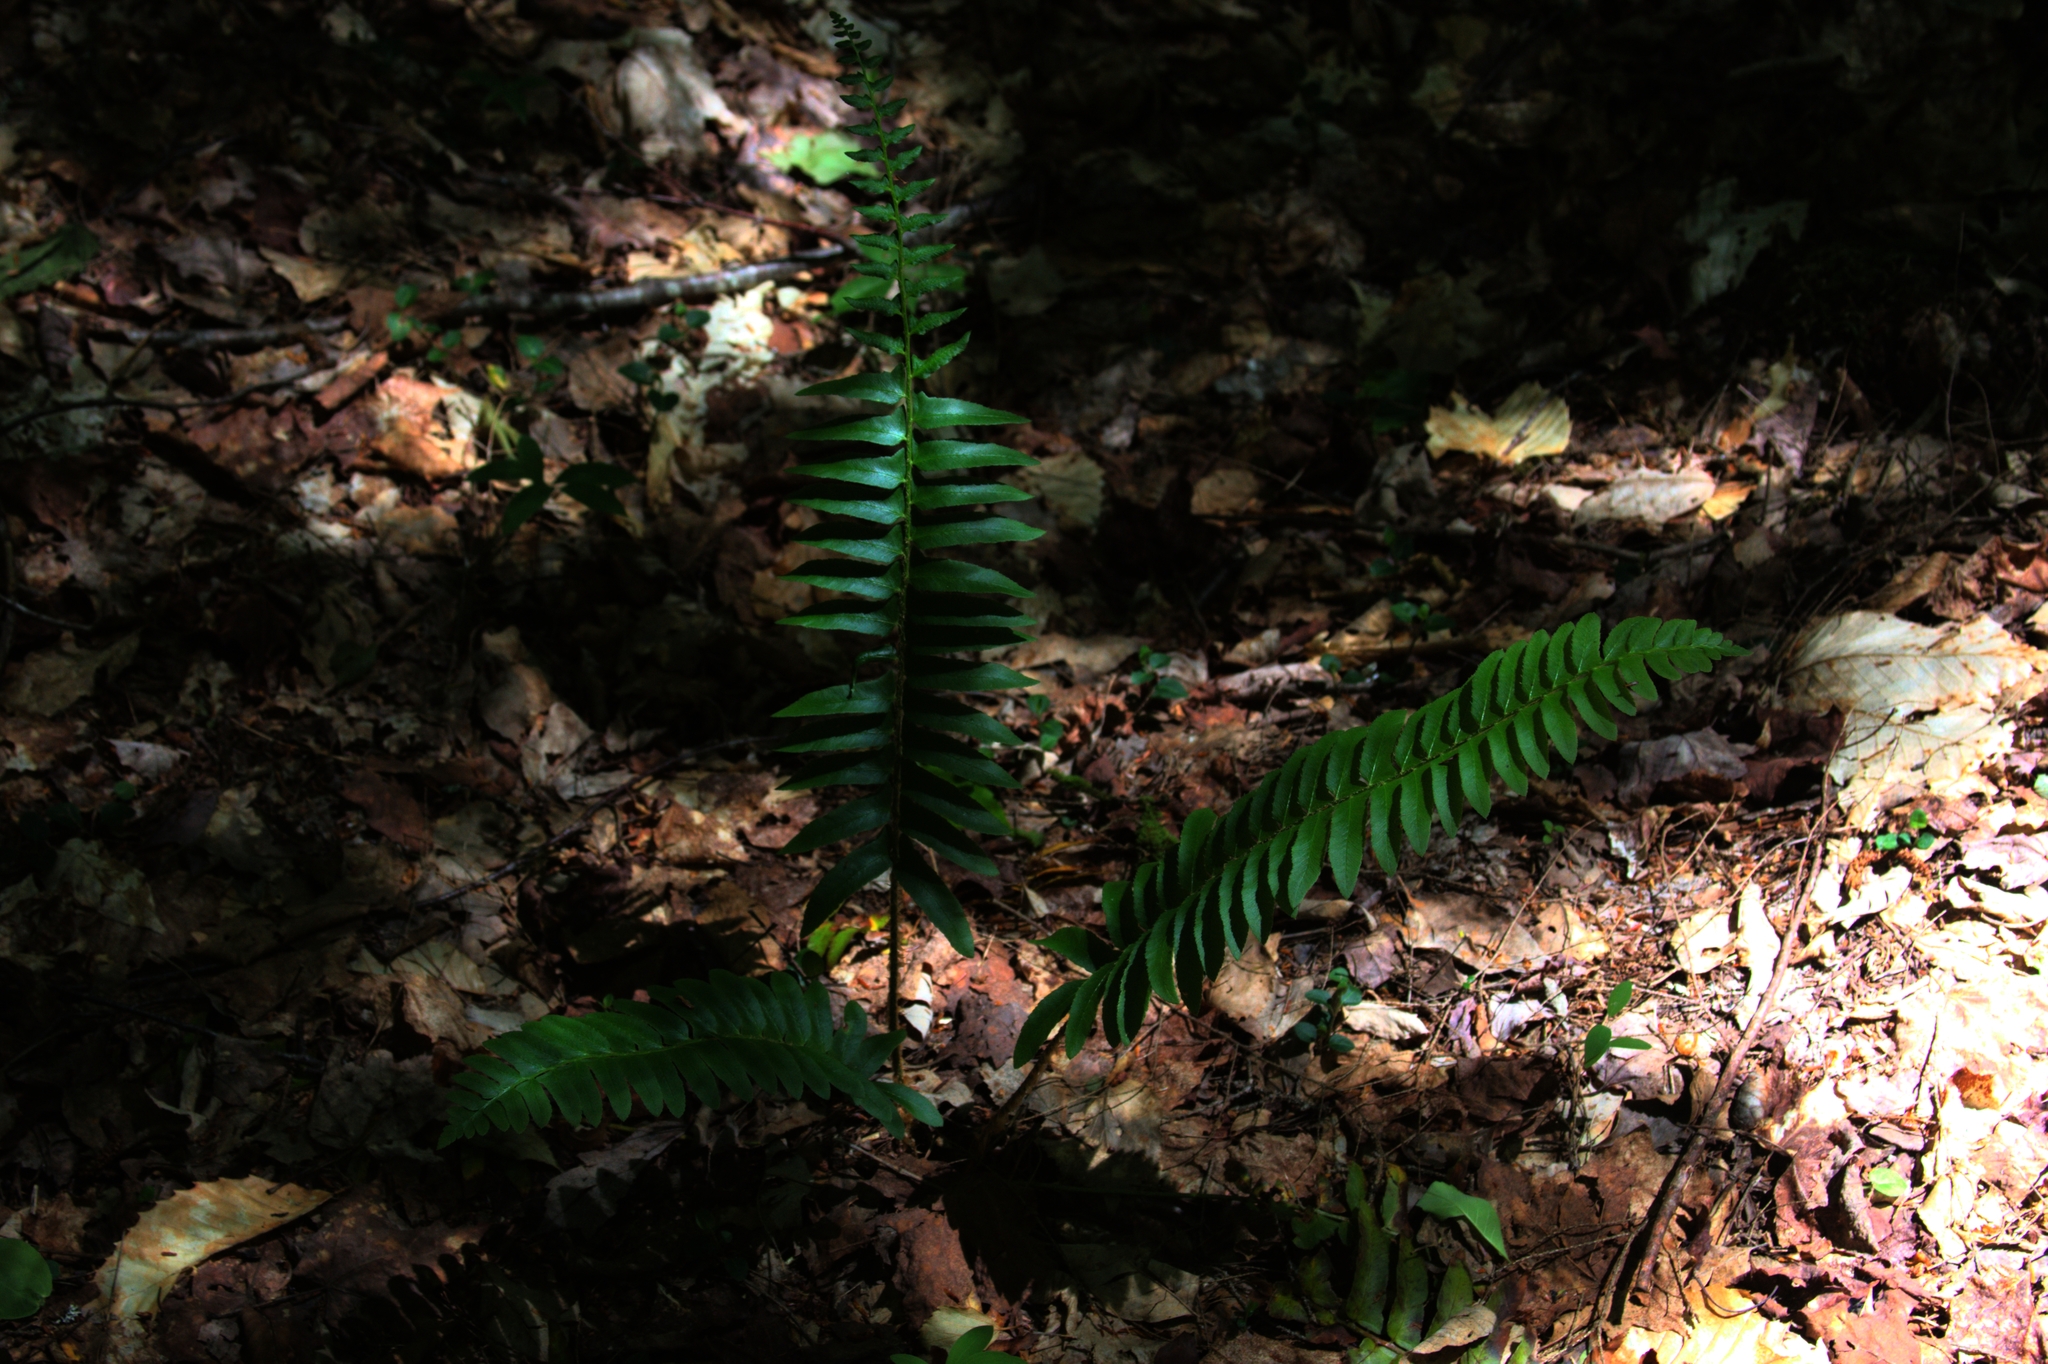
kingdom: Plantae
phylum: Tracheophyta
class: Polypodiopsida
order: Polypodiales
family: Dryopteridaceae
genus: Polystichum
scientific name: Polystichum acrostichoides
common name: Christmas fern
